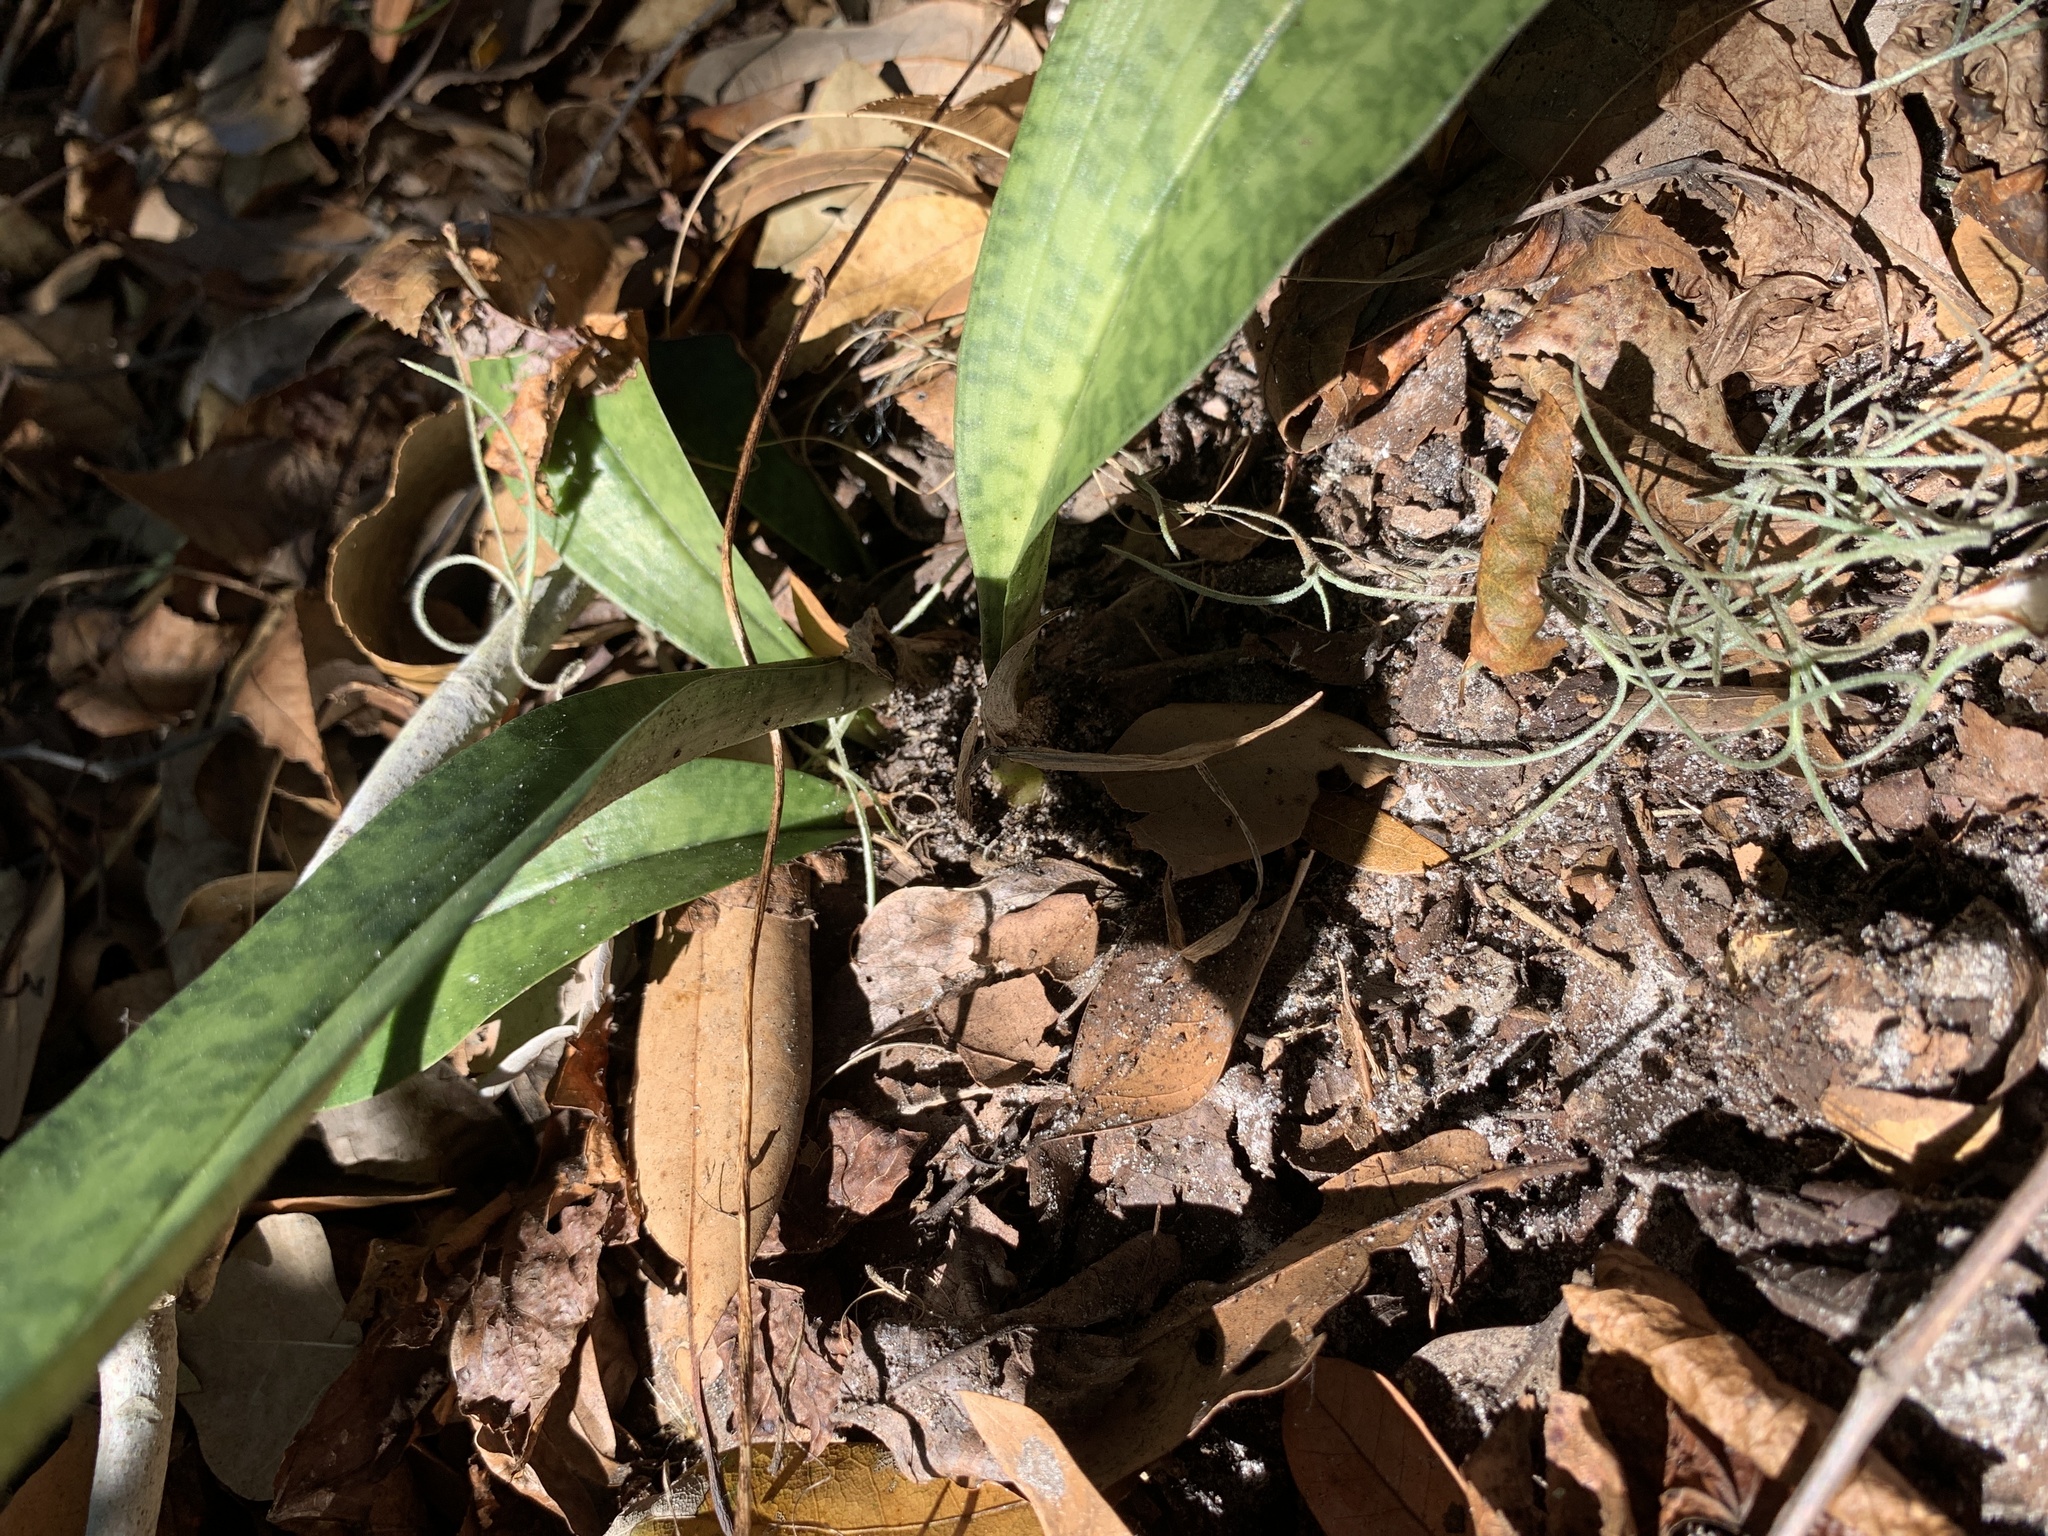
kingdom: Plantae
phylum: Tracheophyta
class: Liliopsida
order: Asparagales
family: Orchidaceae
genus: Eulophia
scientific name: Eulophia maculata
